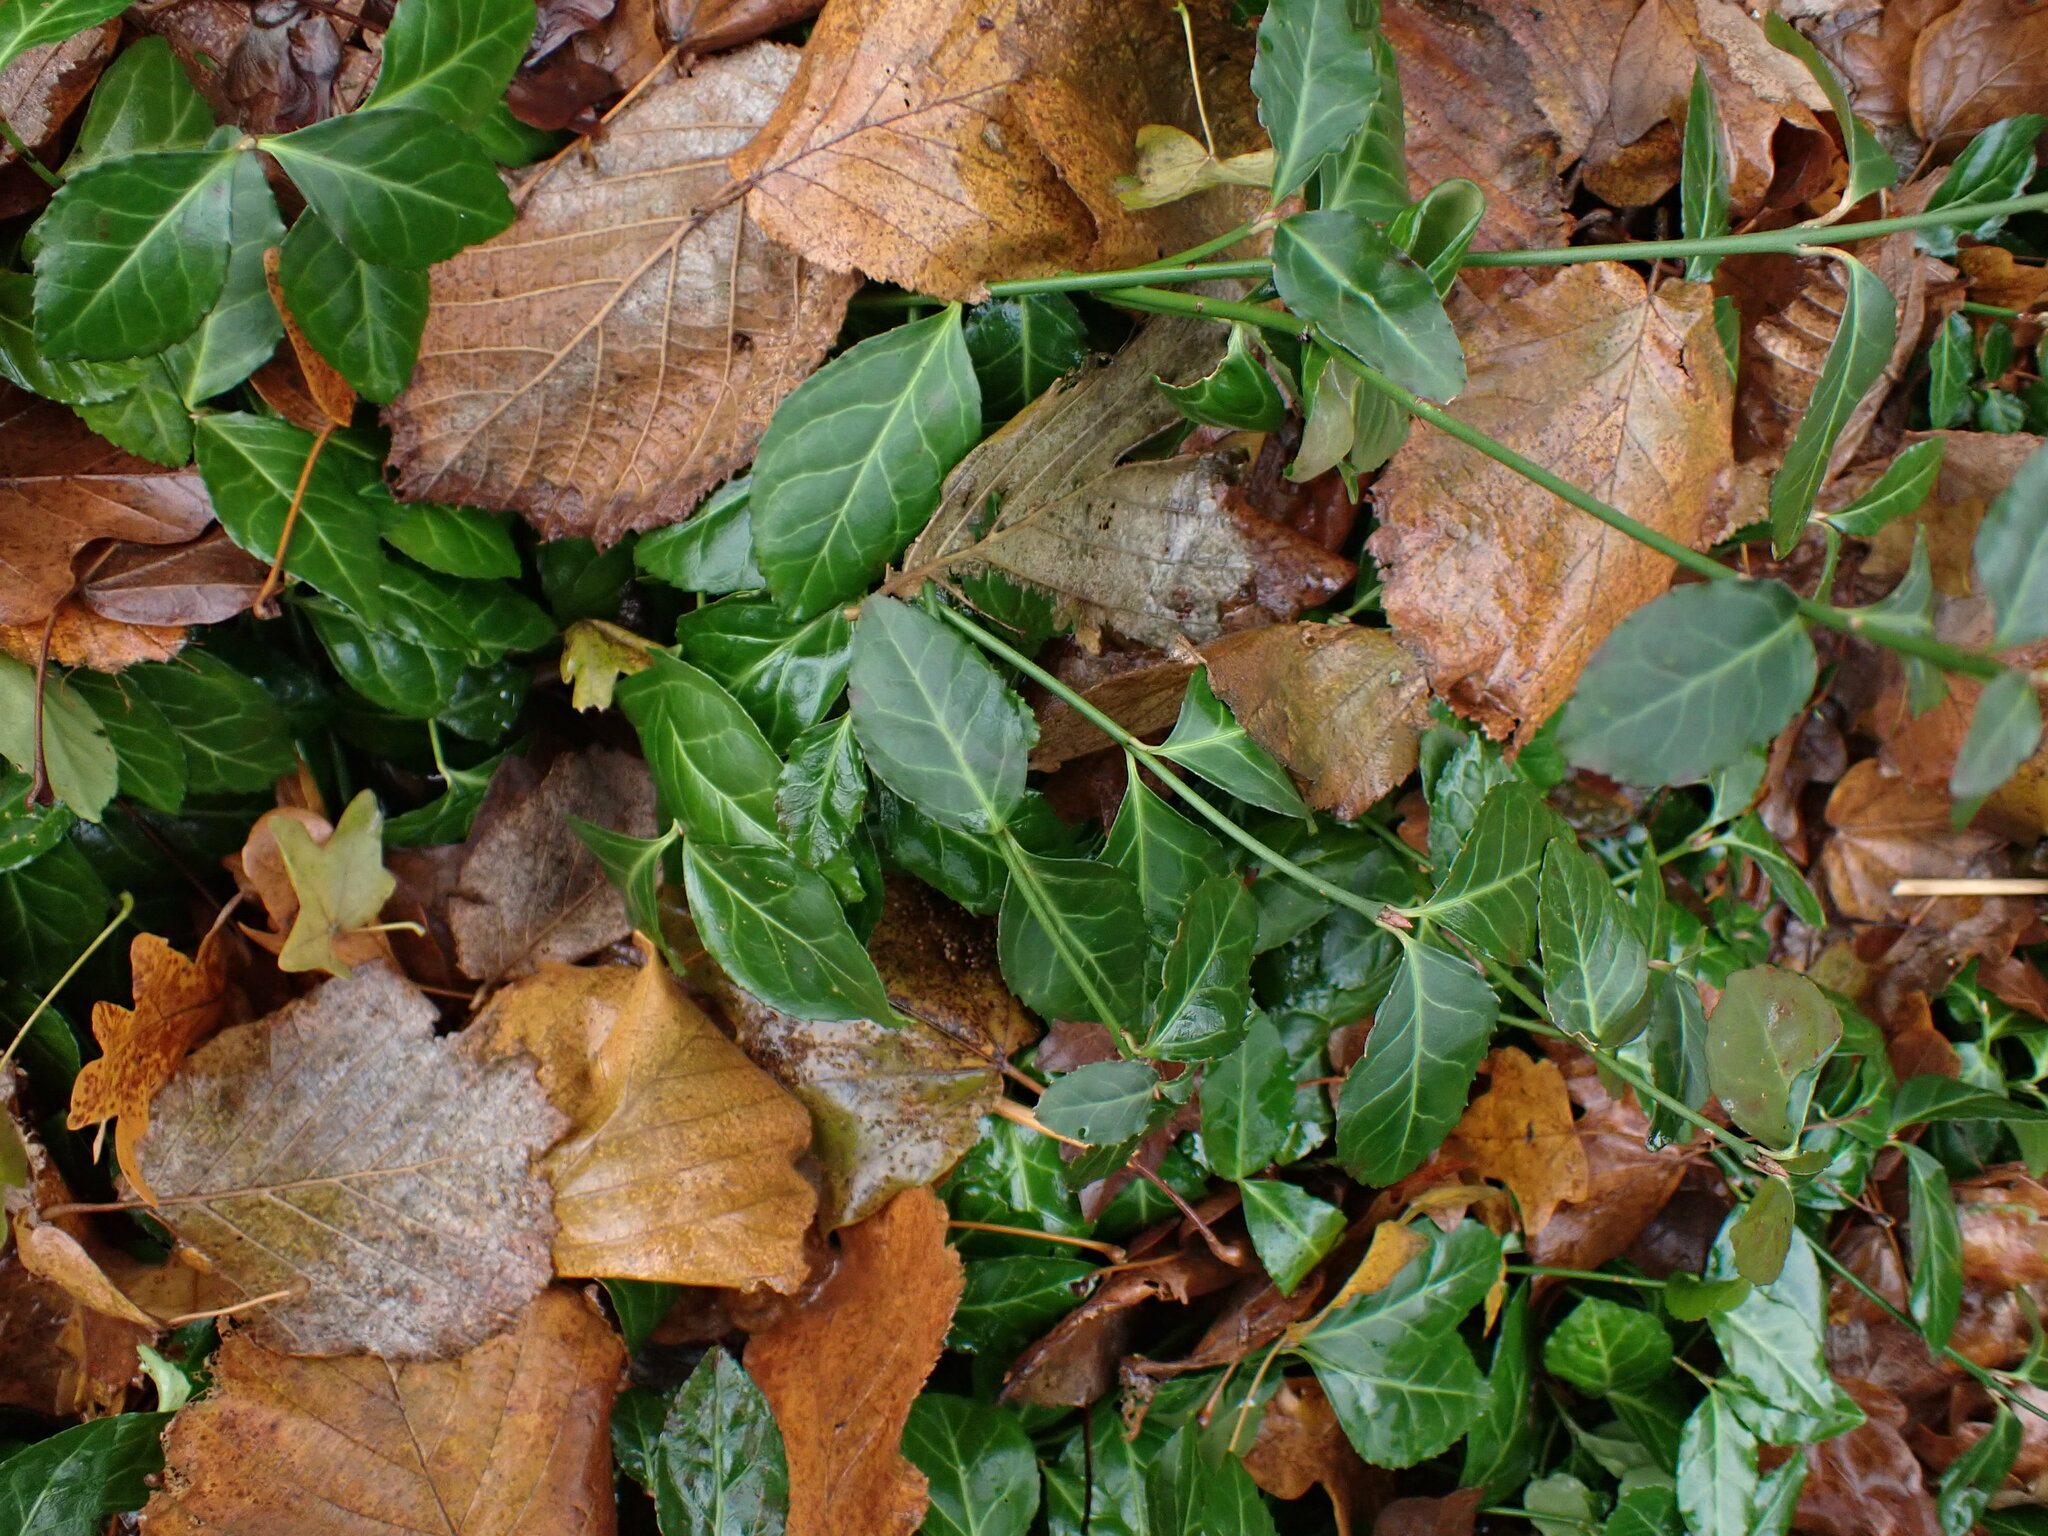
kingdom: Plantae
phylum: Tracheophyta
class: Magnoliopsida
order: Celastrales
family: Celastraceae
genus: Euonymus
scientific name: Euonymus fortunei
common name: Climbing euonymus
